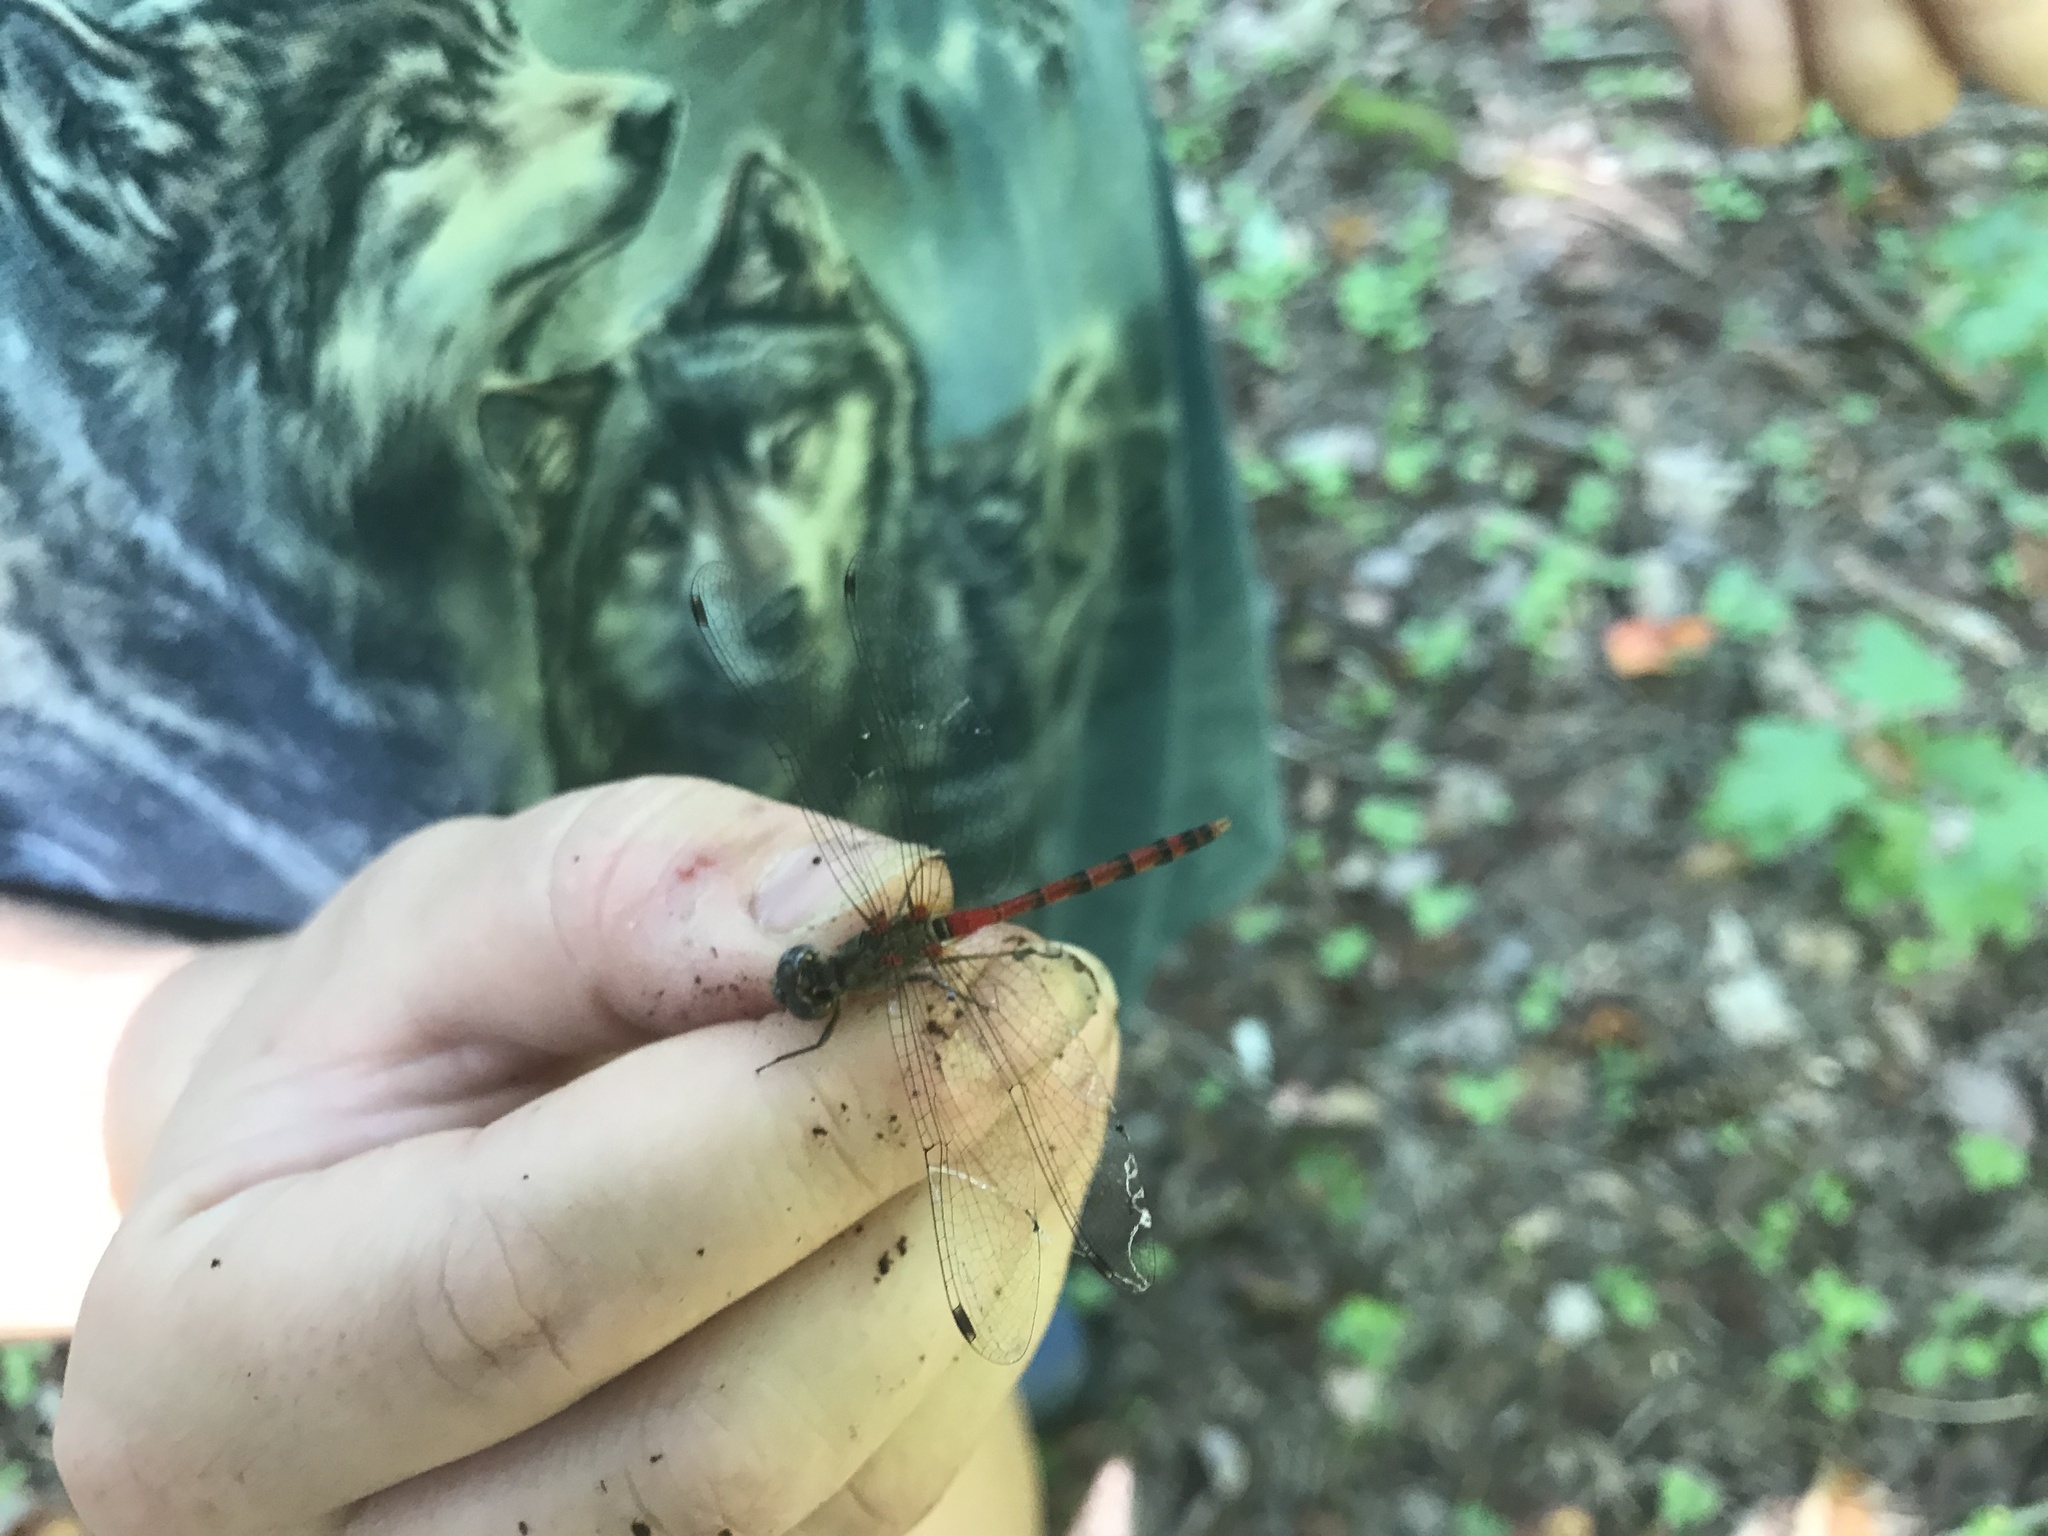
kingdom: Animalia
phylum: Arthropoda
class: Insecta
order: Odonata
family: Libellulidae
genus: Sympetrum
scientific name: Sympetrum ambiguum
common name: Blue-faced meadowhawk
